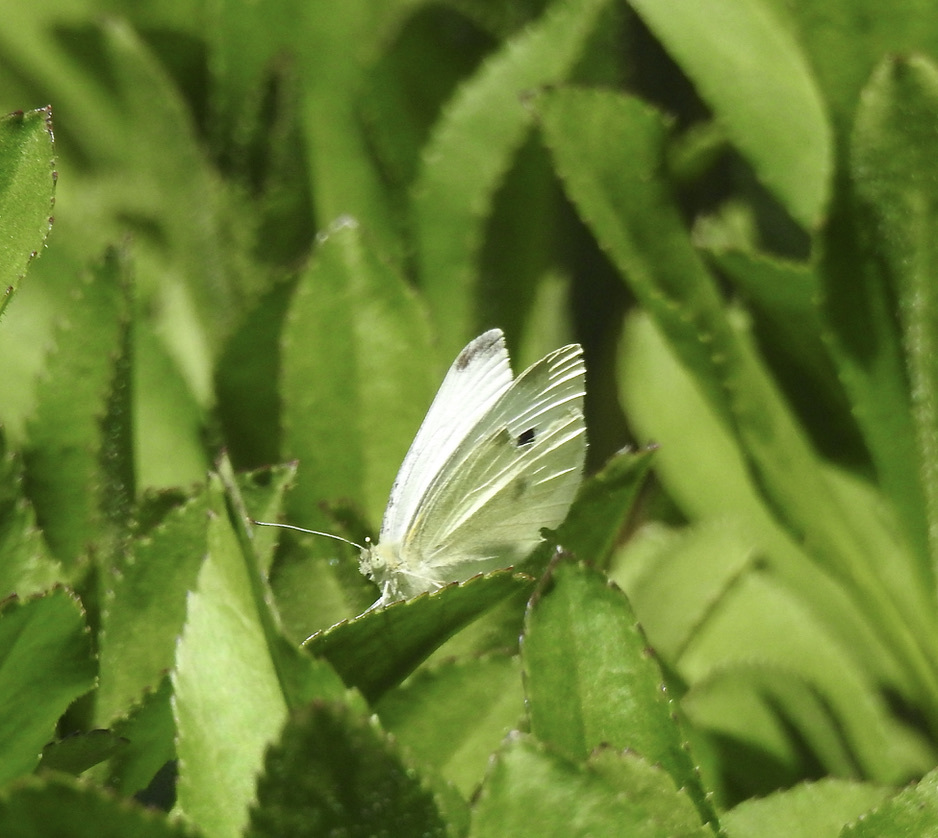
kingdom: Animalia
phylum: Arthropoda
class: Insecta
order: Lepidoptera
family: Pieridae
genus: Pieris
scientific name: Pieris rapae
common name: Small white
